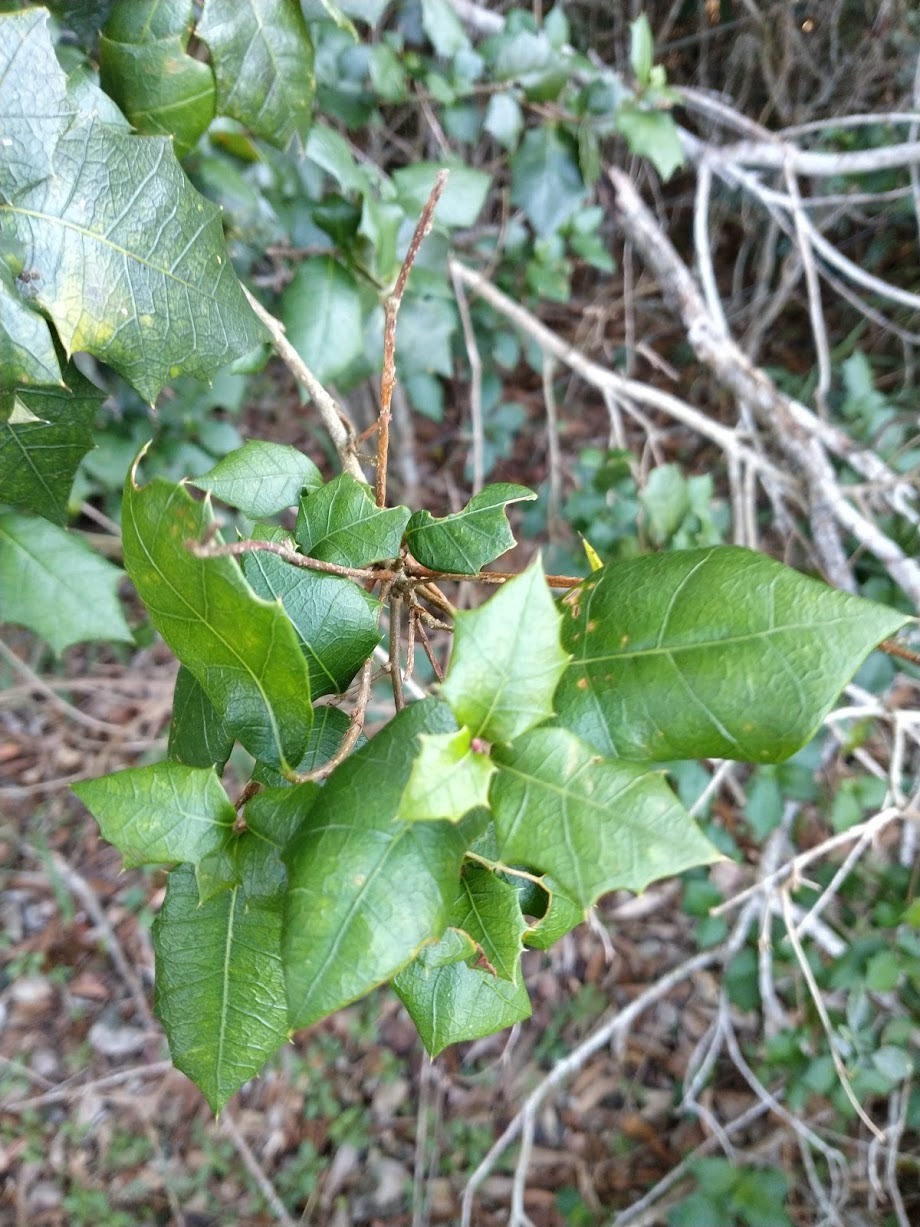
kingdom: Plantae
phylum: Tracheophyta
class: Magnoliopsida
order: Malpighiales
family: Euphorbiaceae
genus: Alchornea
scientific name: Alchornea ilicifolia
